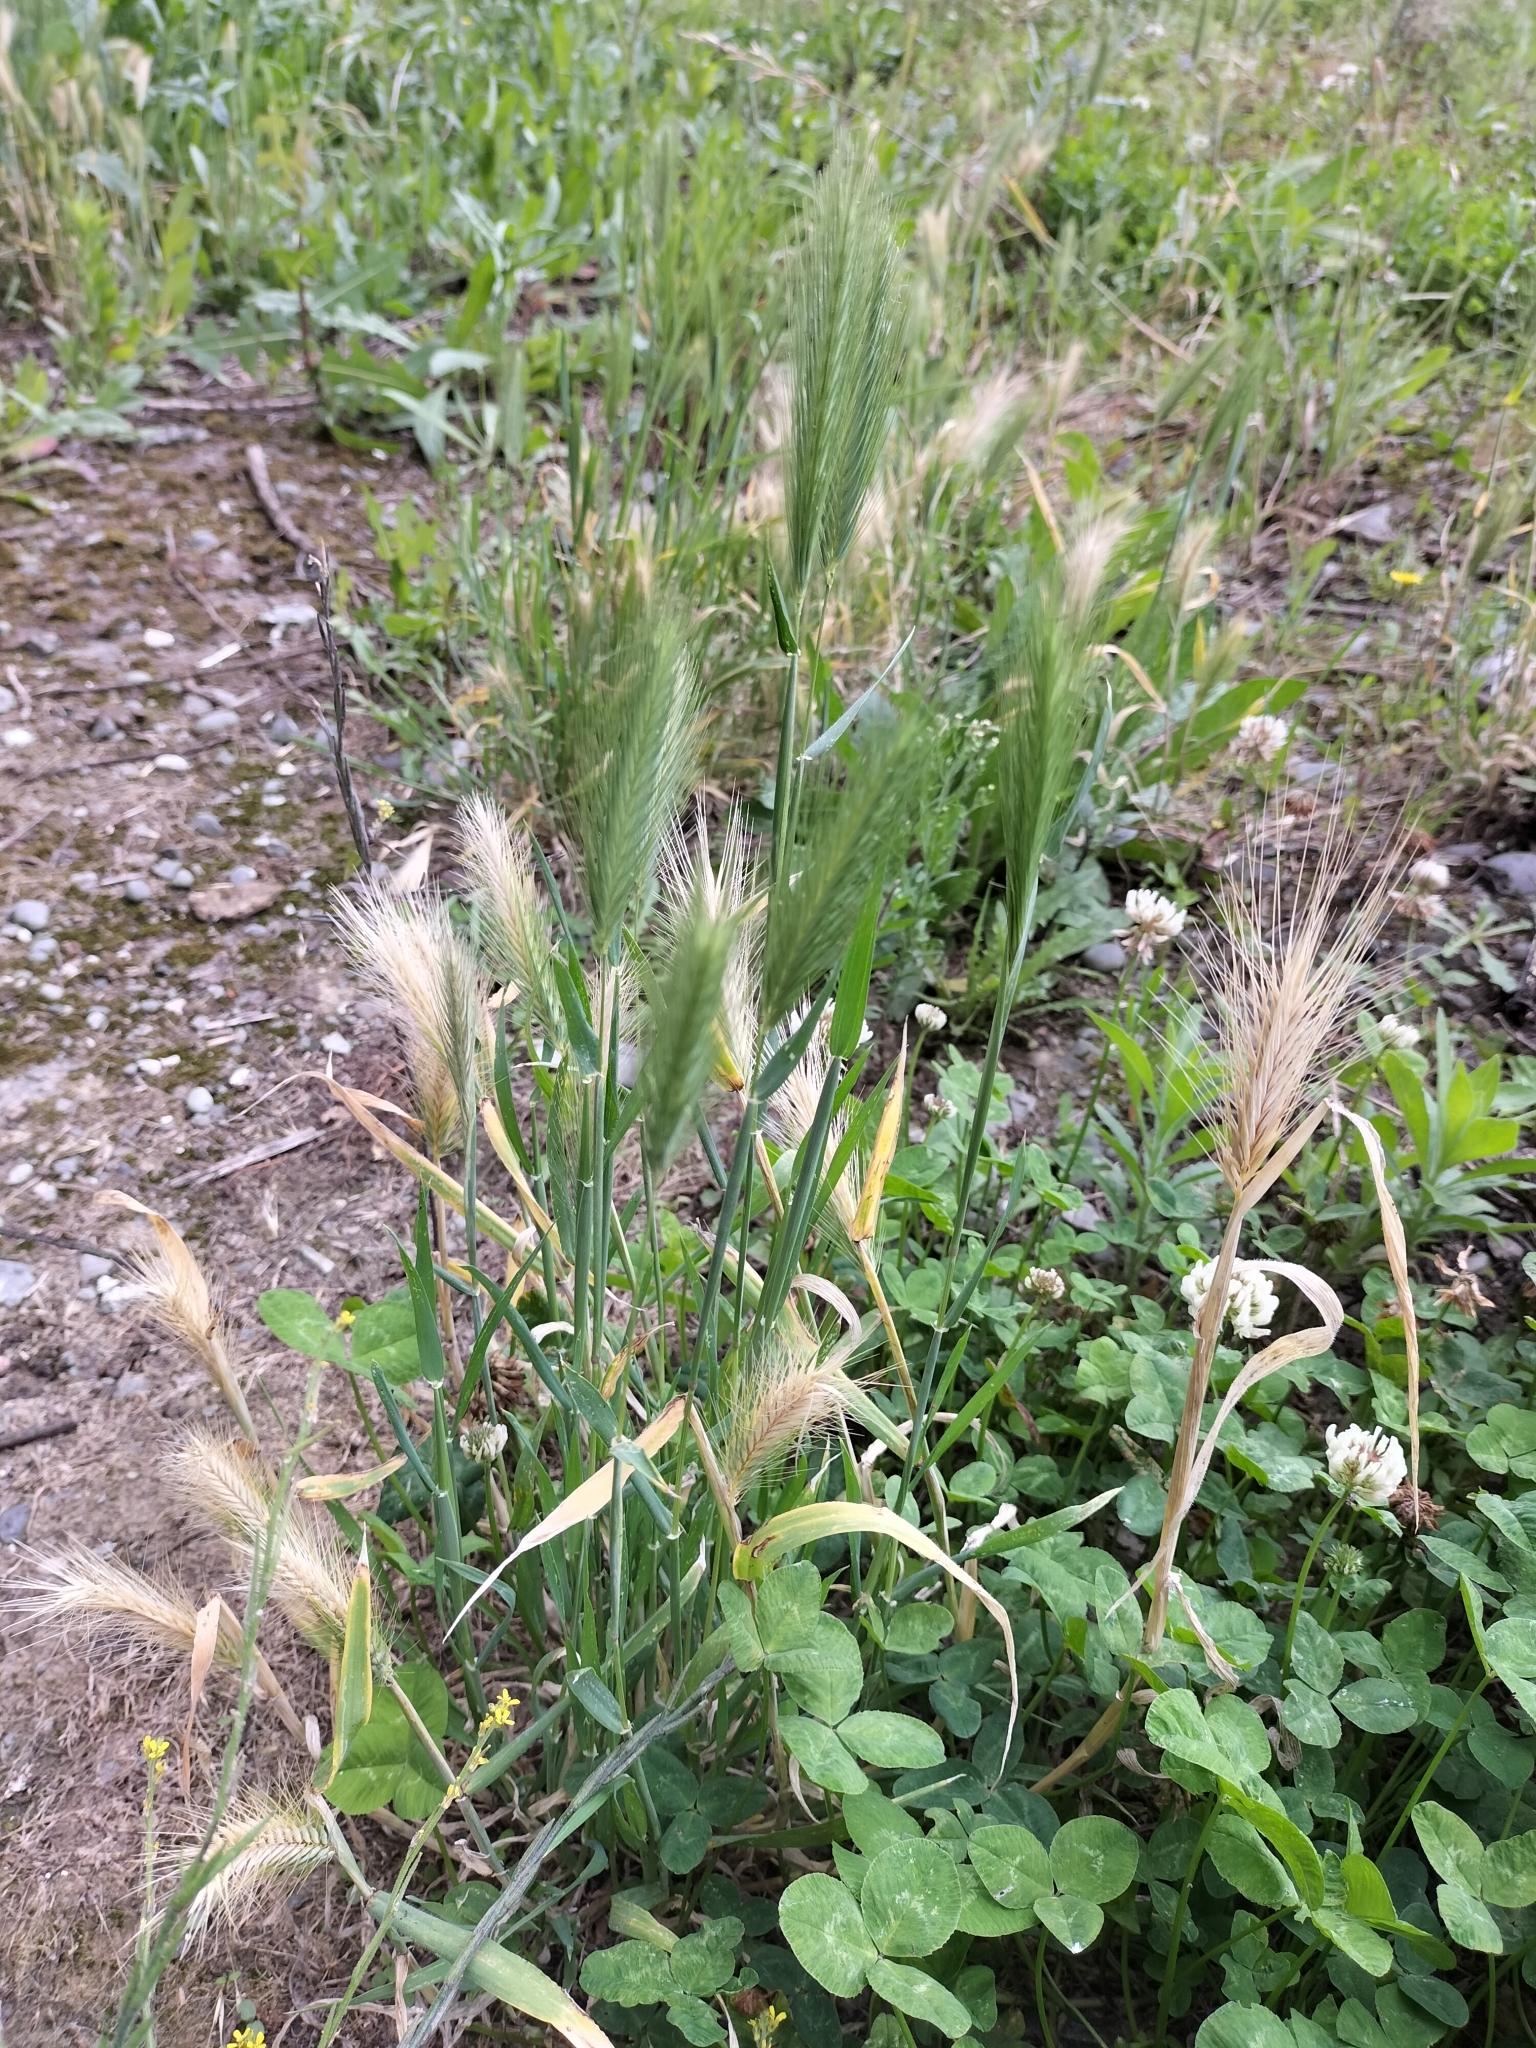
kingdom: Plantae
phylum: Tracheophyta
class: Liliopsida
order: Poales
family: Poaceae
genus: Hordeum
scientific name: Hordeum murinum
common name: Wall barley
